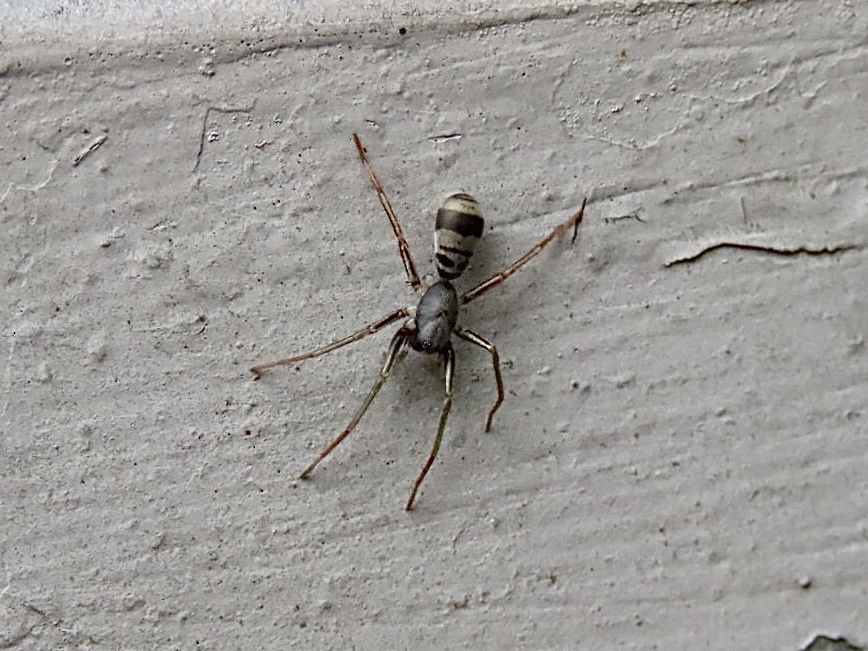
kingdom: Animalia
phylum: Arthropoda
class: Arachnida
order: Araneae
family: Corinnidae
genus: Corinnomma
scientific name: Corinnomma severum
